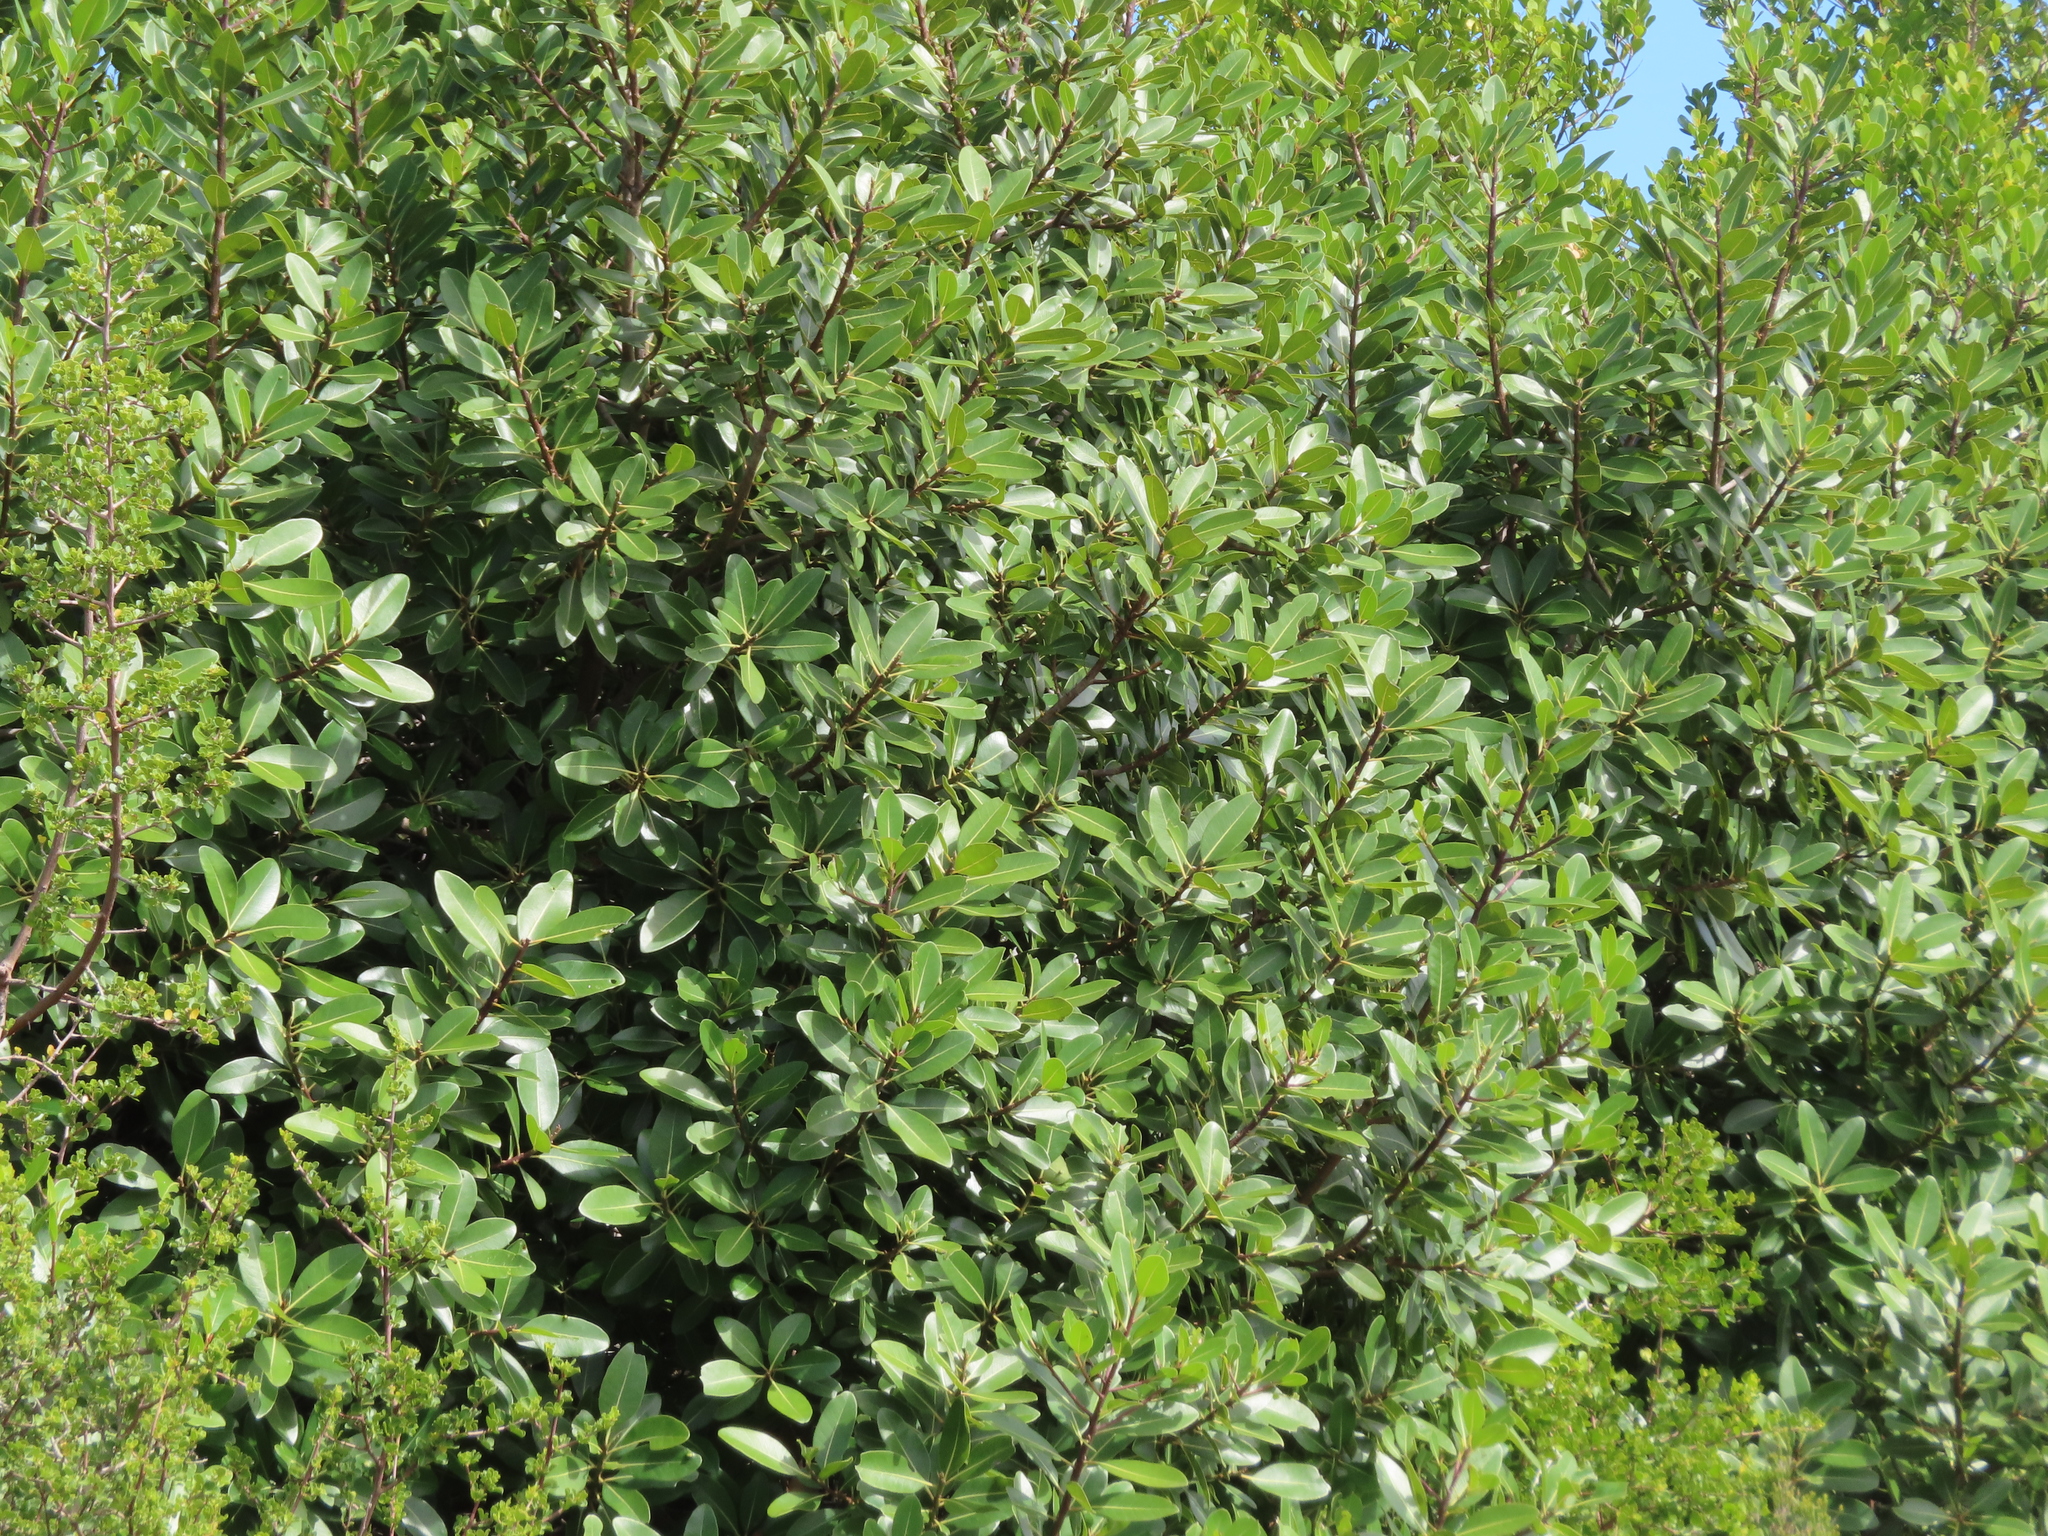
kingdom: Plantae
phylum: Tracheophyta
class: Magnoliopsida
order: Ericales
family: Sapotaceae
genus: Sideroxylon
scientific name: Sideroxylon inerme
